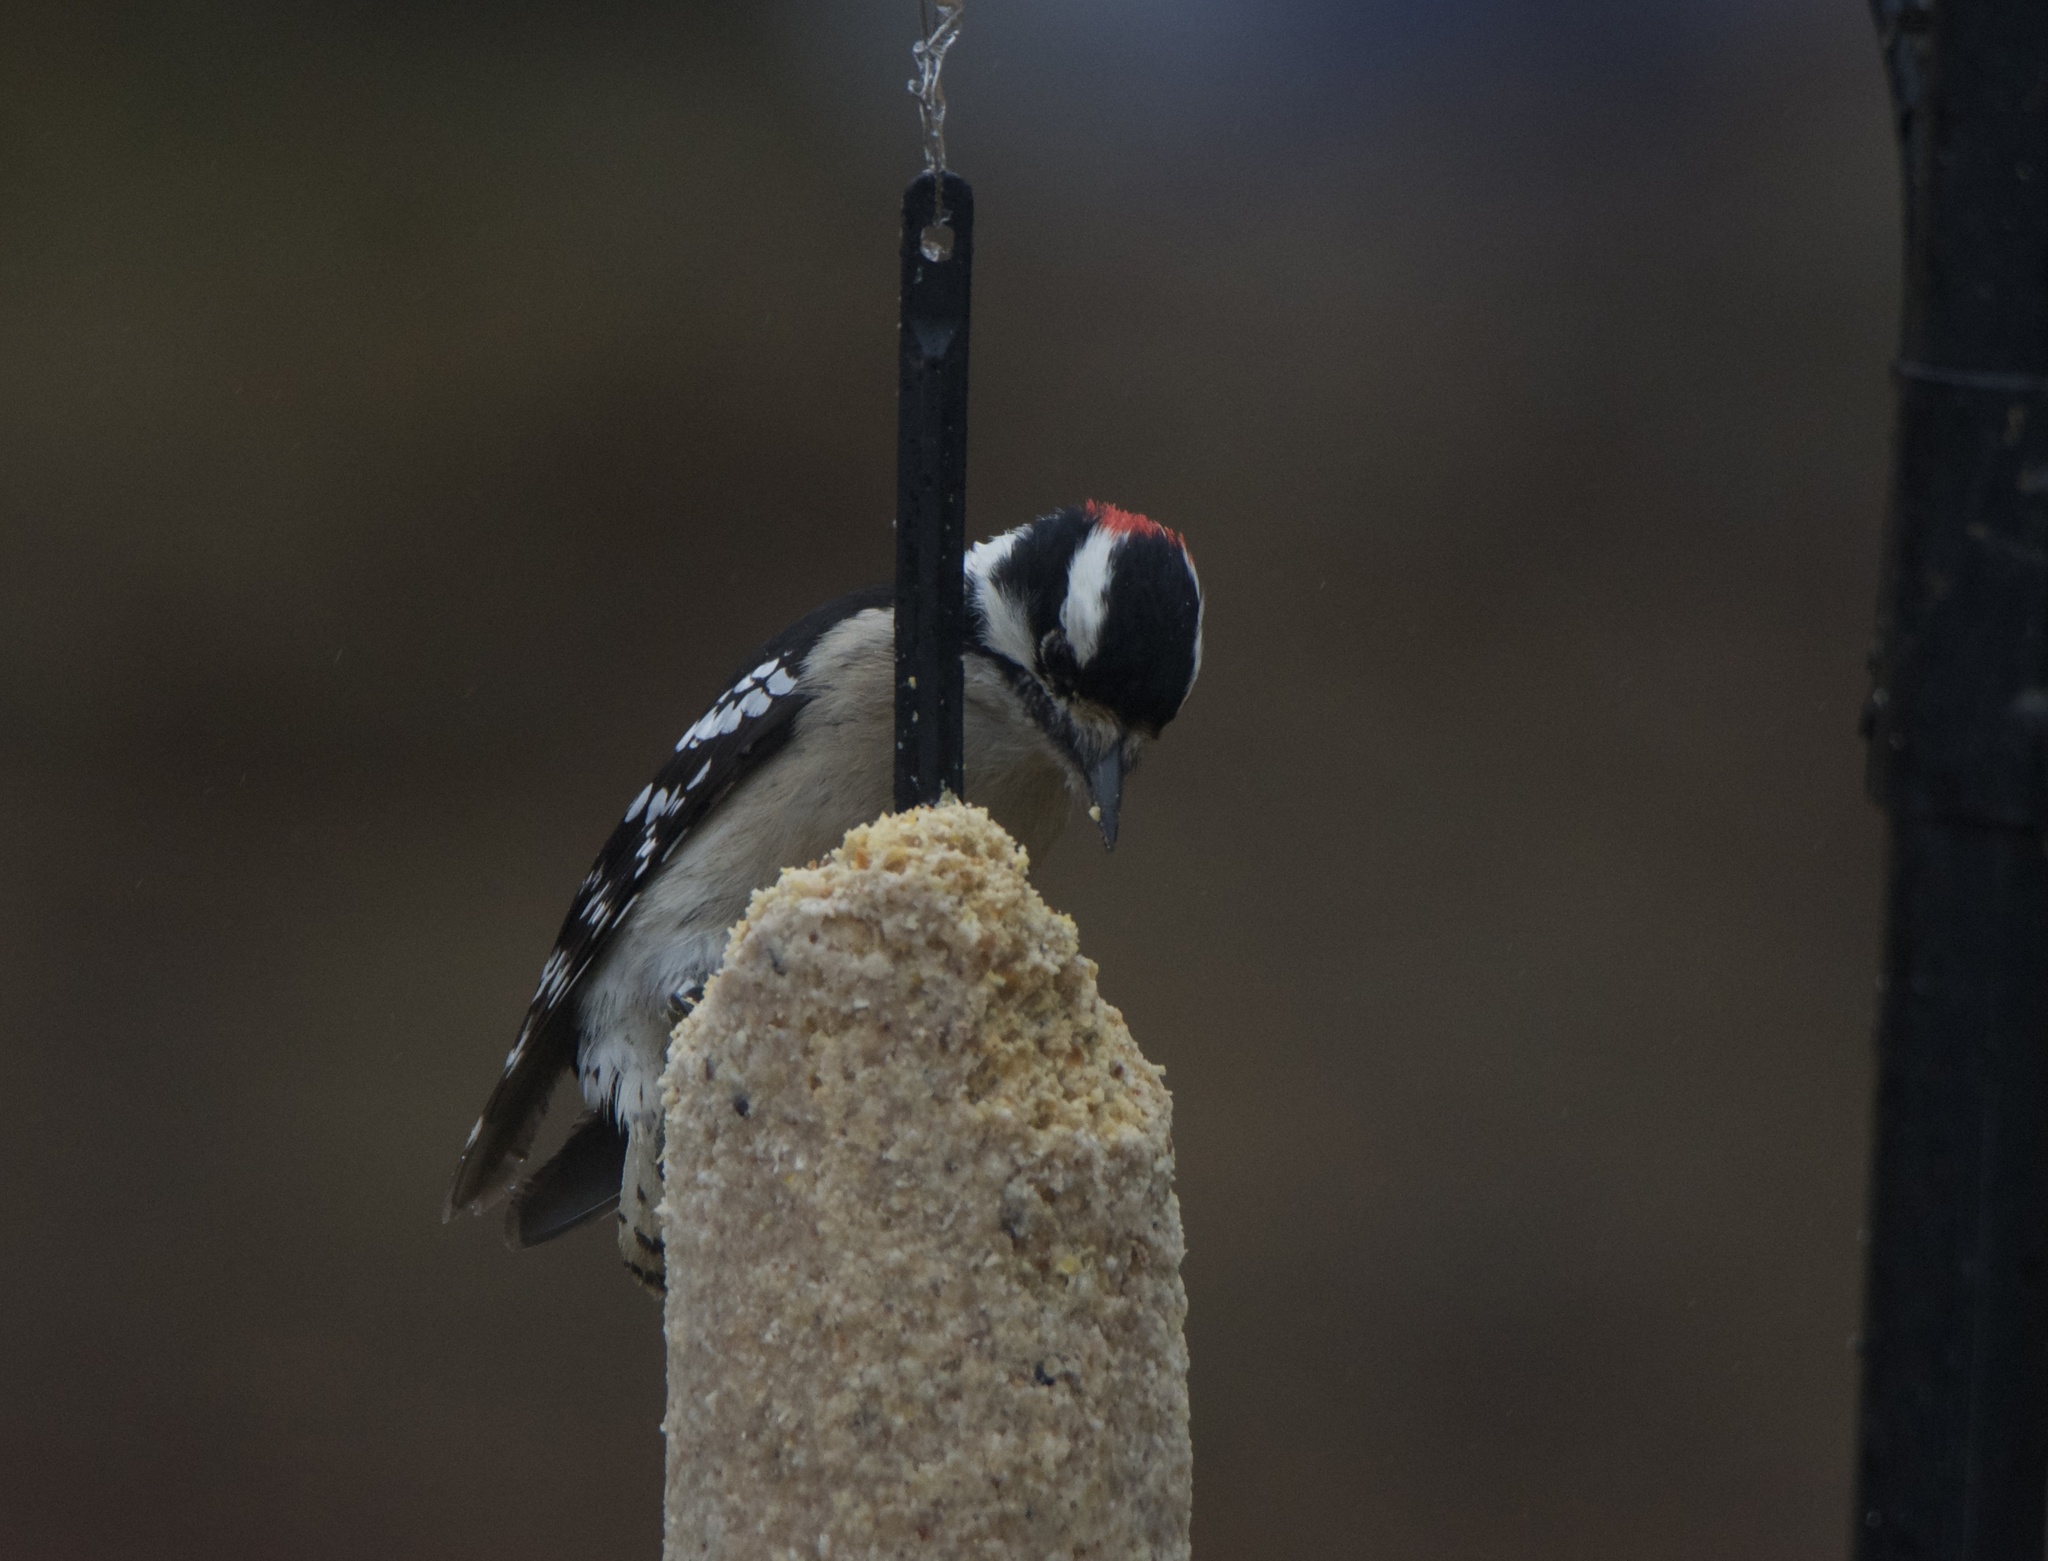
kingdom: Animalia
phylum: Chordata
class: Aves
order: Piciformes
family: Picidae
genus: Dryobates
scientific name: Dryobates pubescens
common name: Downy woodpecker
